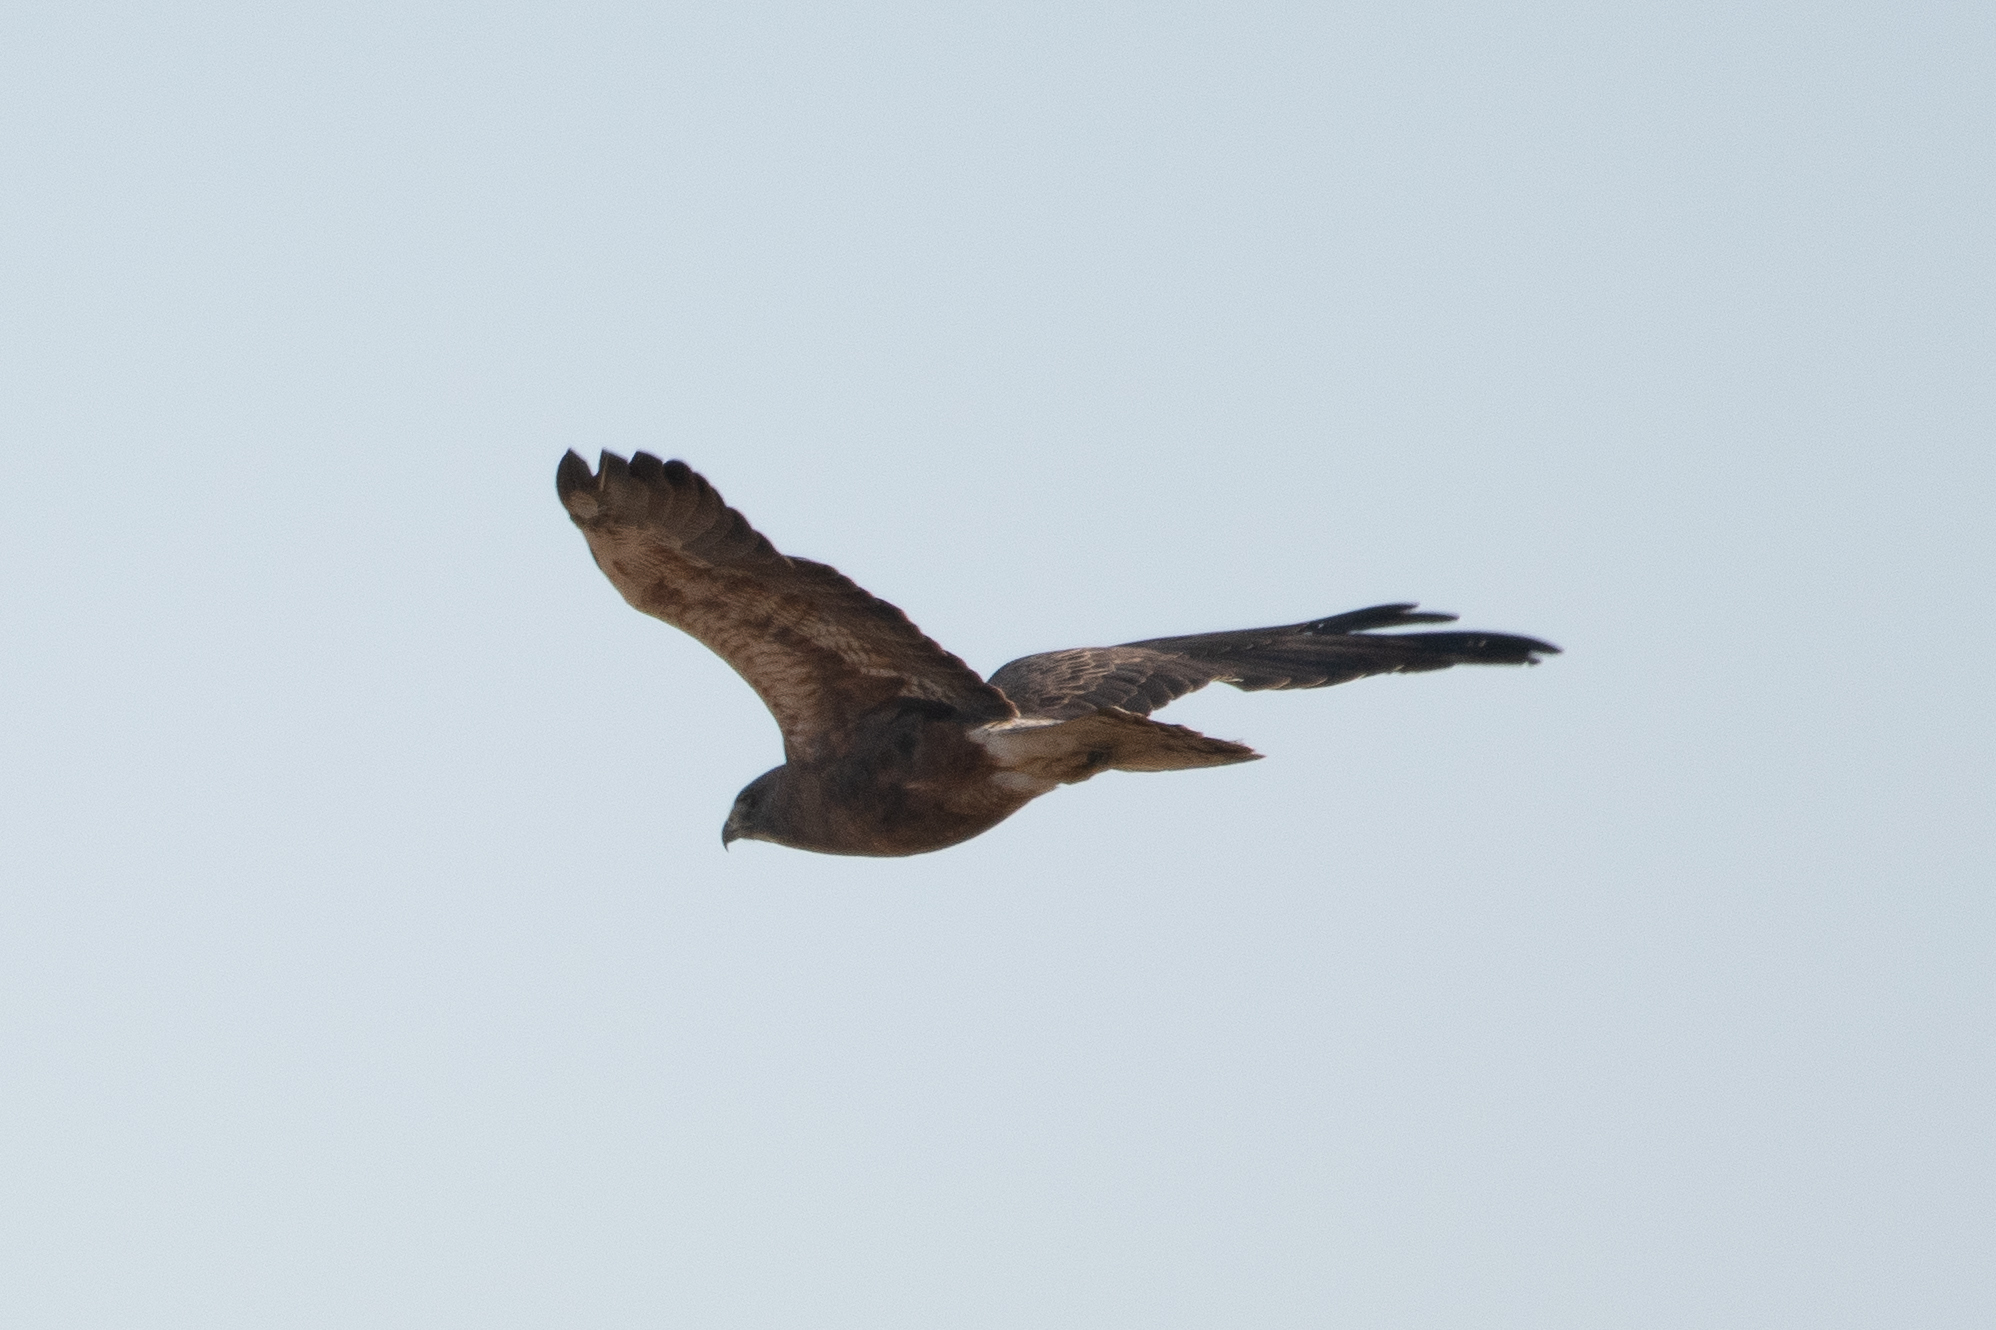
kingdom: Animalia
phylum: Chordata
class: Aves
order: Accipitriformes
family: Accipitridae
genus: Buteo
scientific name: Buteo swainsoni
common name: Swainson's hawk
